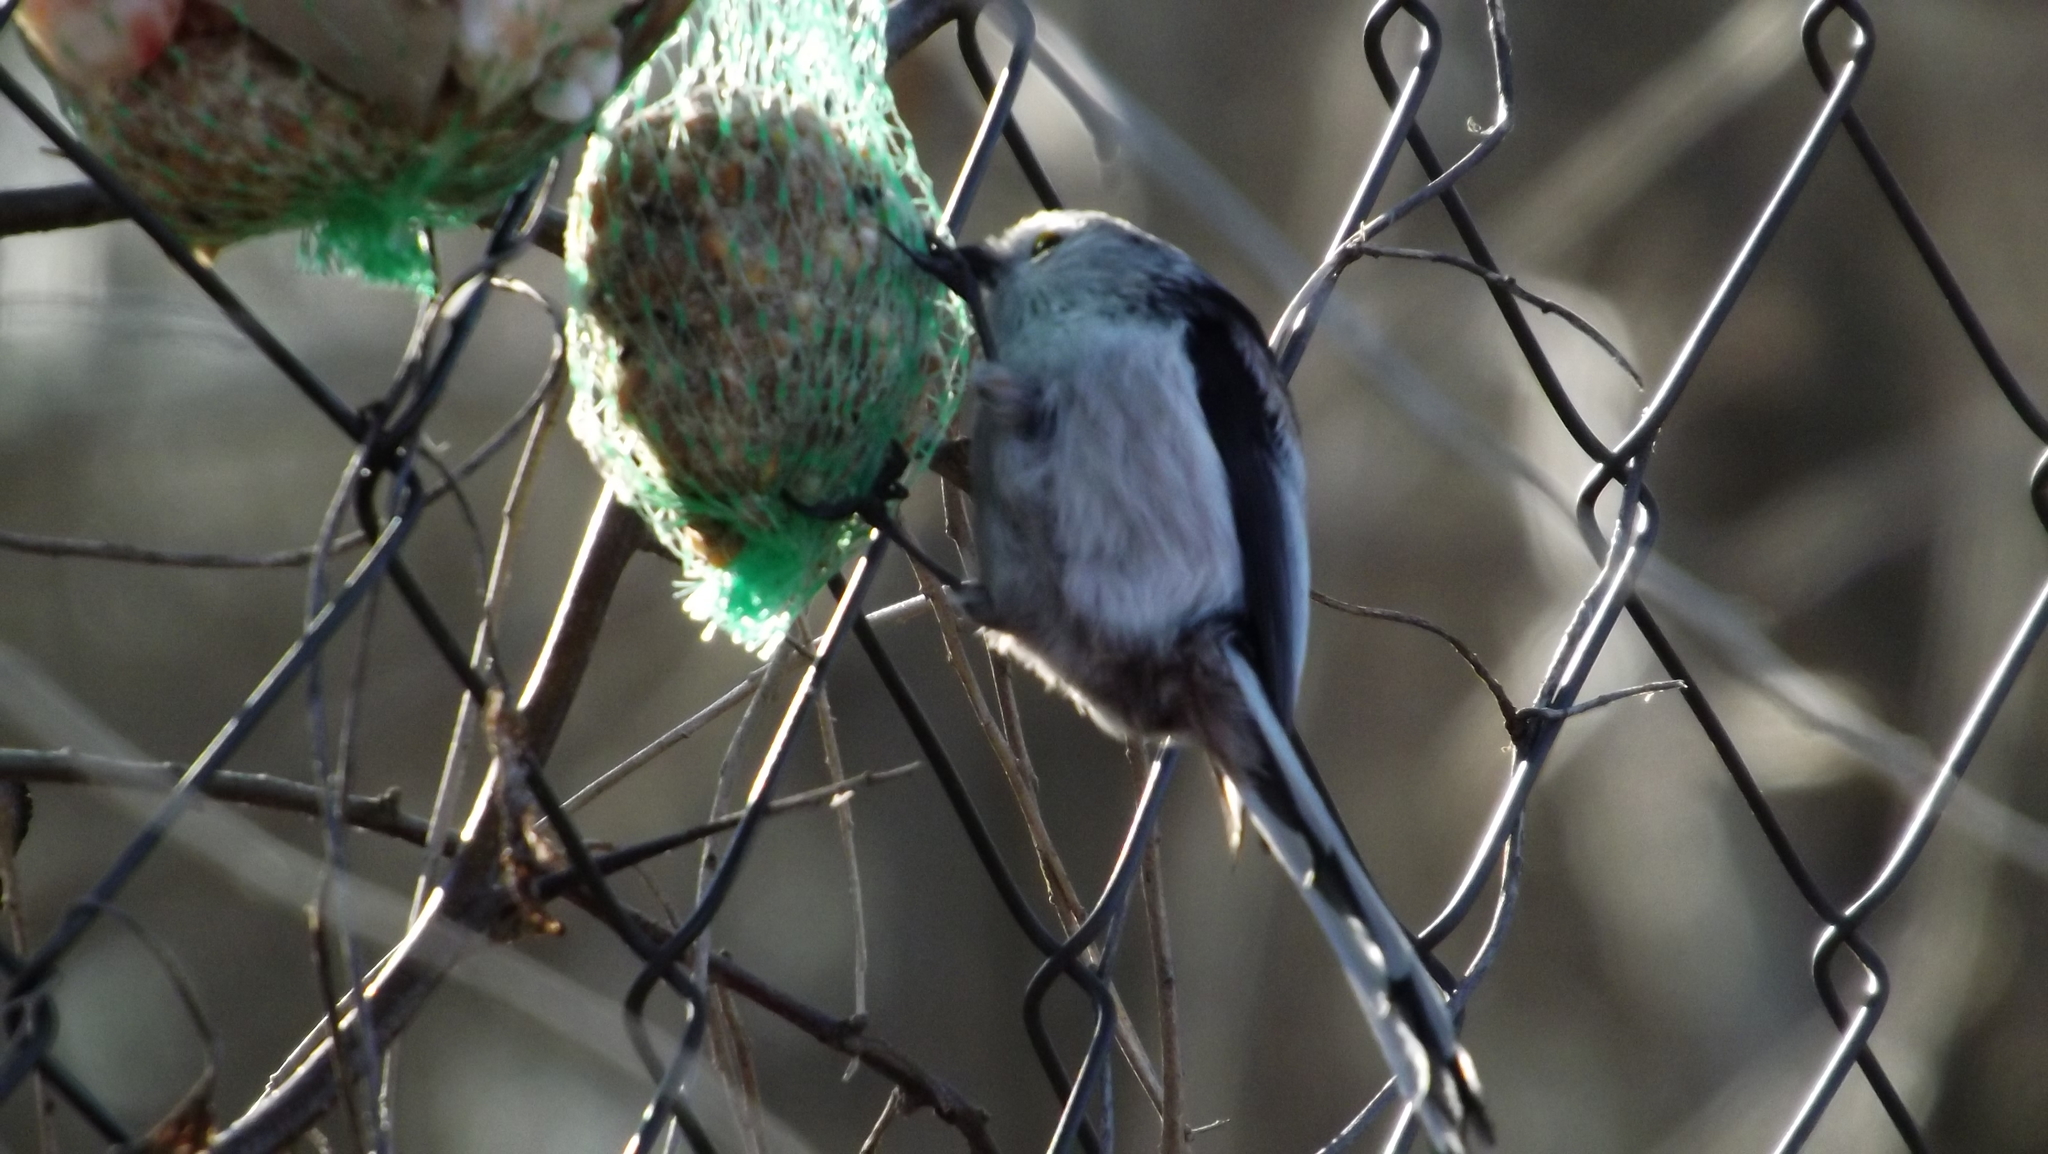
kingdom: Animalia
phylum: Chordata
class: Aves
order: Passeriformes
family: Aegithalidae
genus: Aegithalos
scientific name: Aegithalos caudatus
